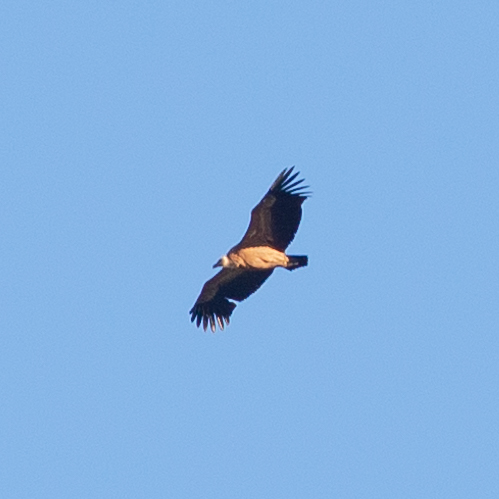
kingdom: Animalia
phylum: Chordata
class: Aves
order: Accipitriformes
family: Accipitridae
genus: Gyps
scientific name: Gyps fulvus
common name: Griffon vulture
